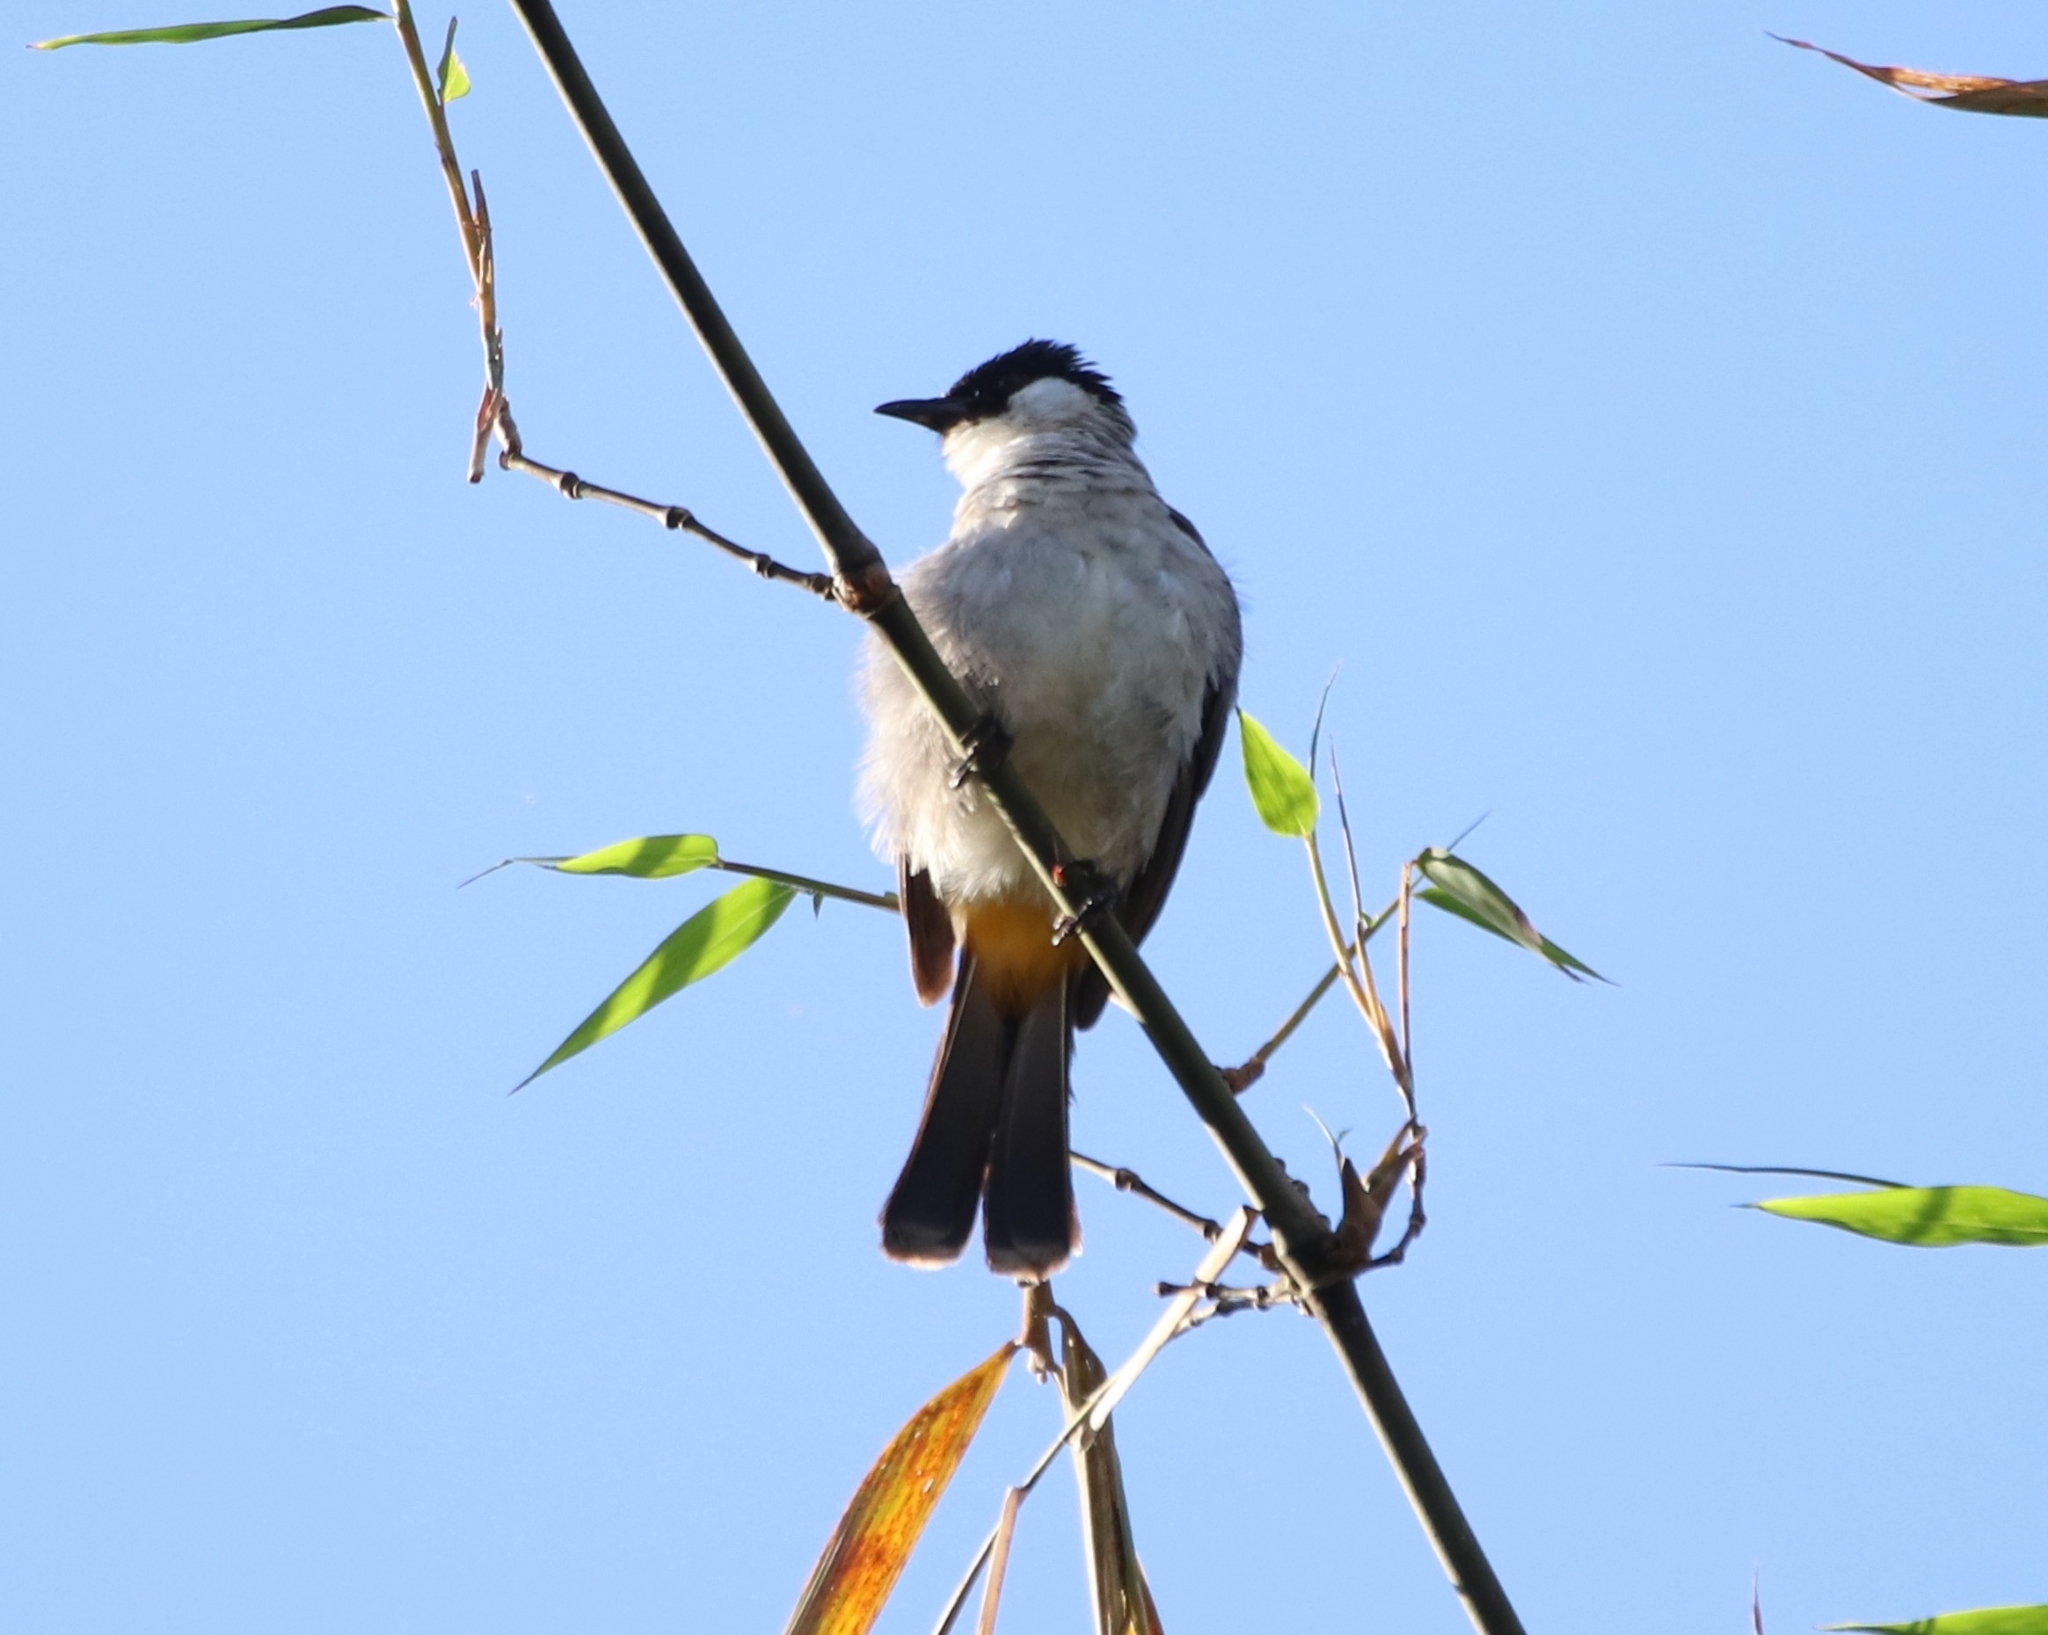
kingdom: Animalia
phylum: Chordata
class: Aves
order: Passeriformes
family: Pycnonotidae
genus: Pycnonotus
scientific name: Pycnonotus aurigaster
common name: Sooty-headed bulbul
